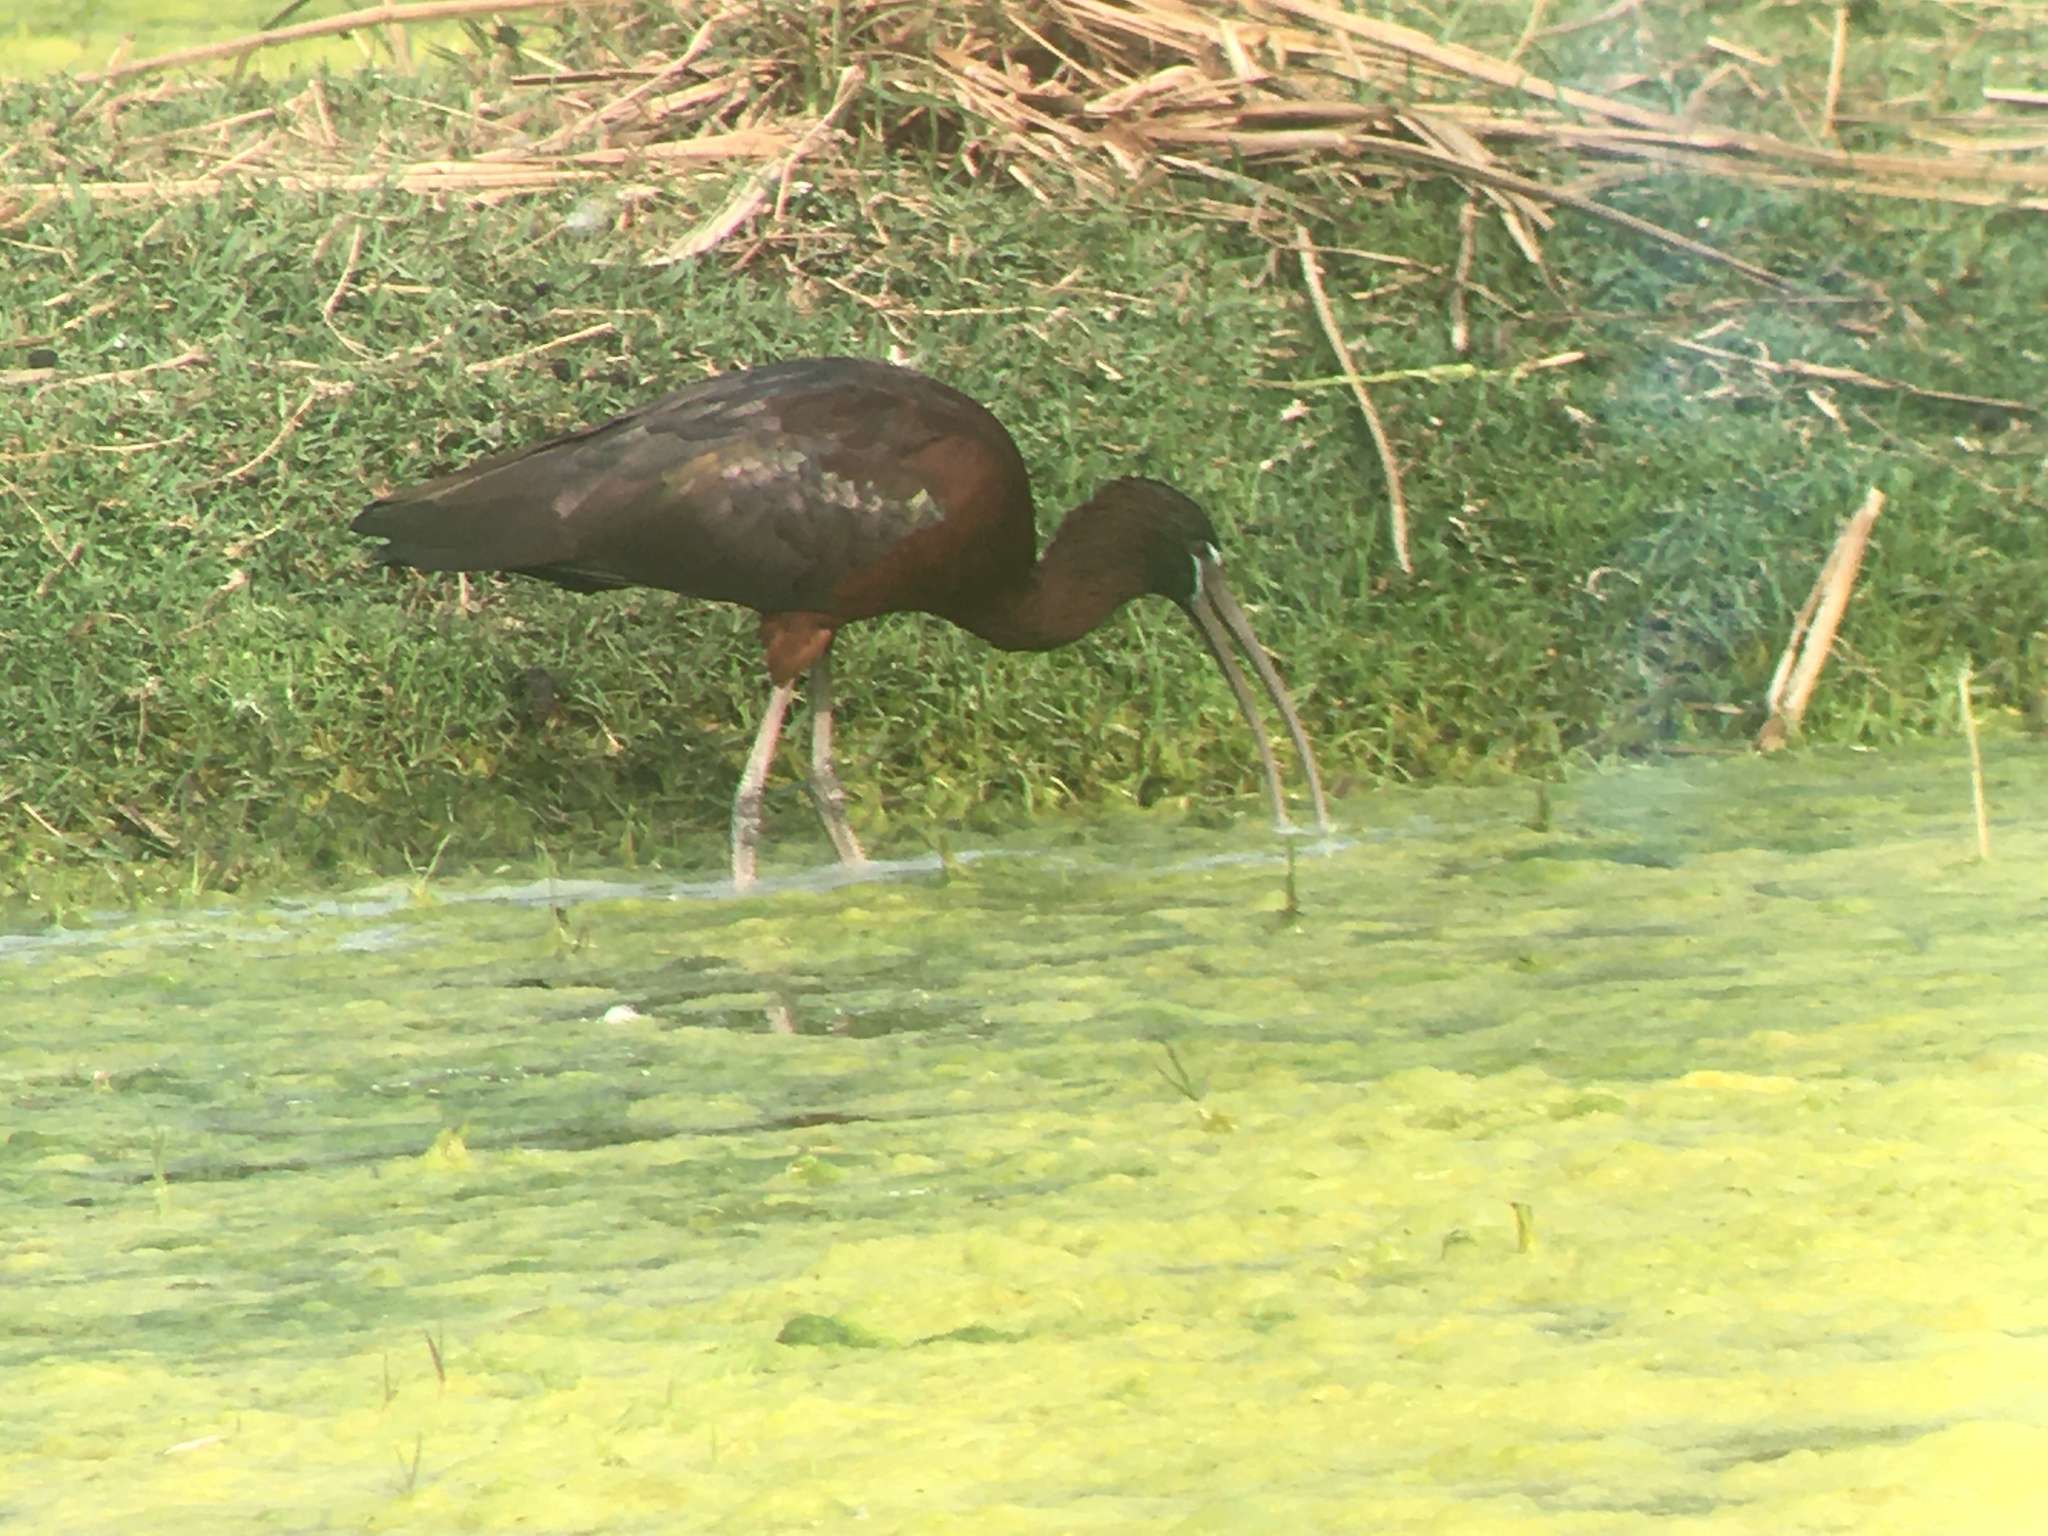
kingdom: Animalia
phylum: Chordata
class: Aves
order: Pelecaniformes
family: Threskiornithidae
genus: Plegadis
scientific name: Plegadis falcinellus
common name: Glossy ibis
